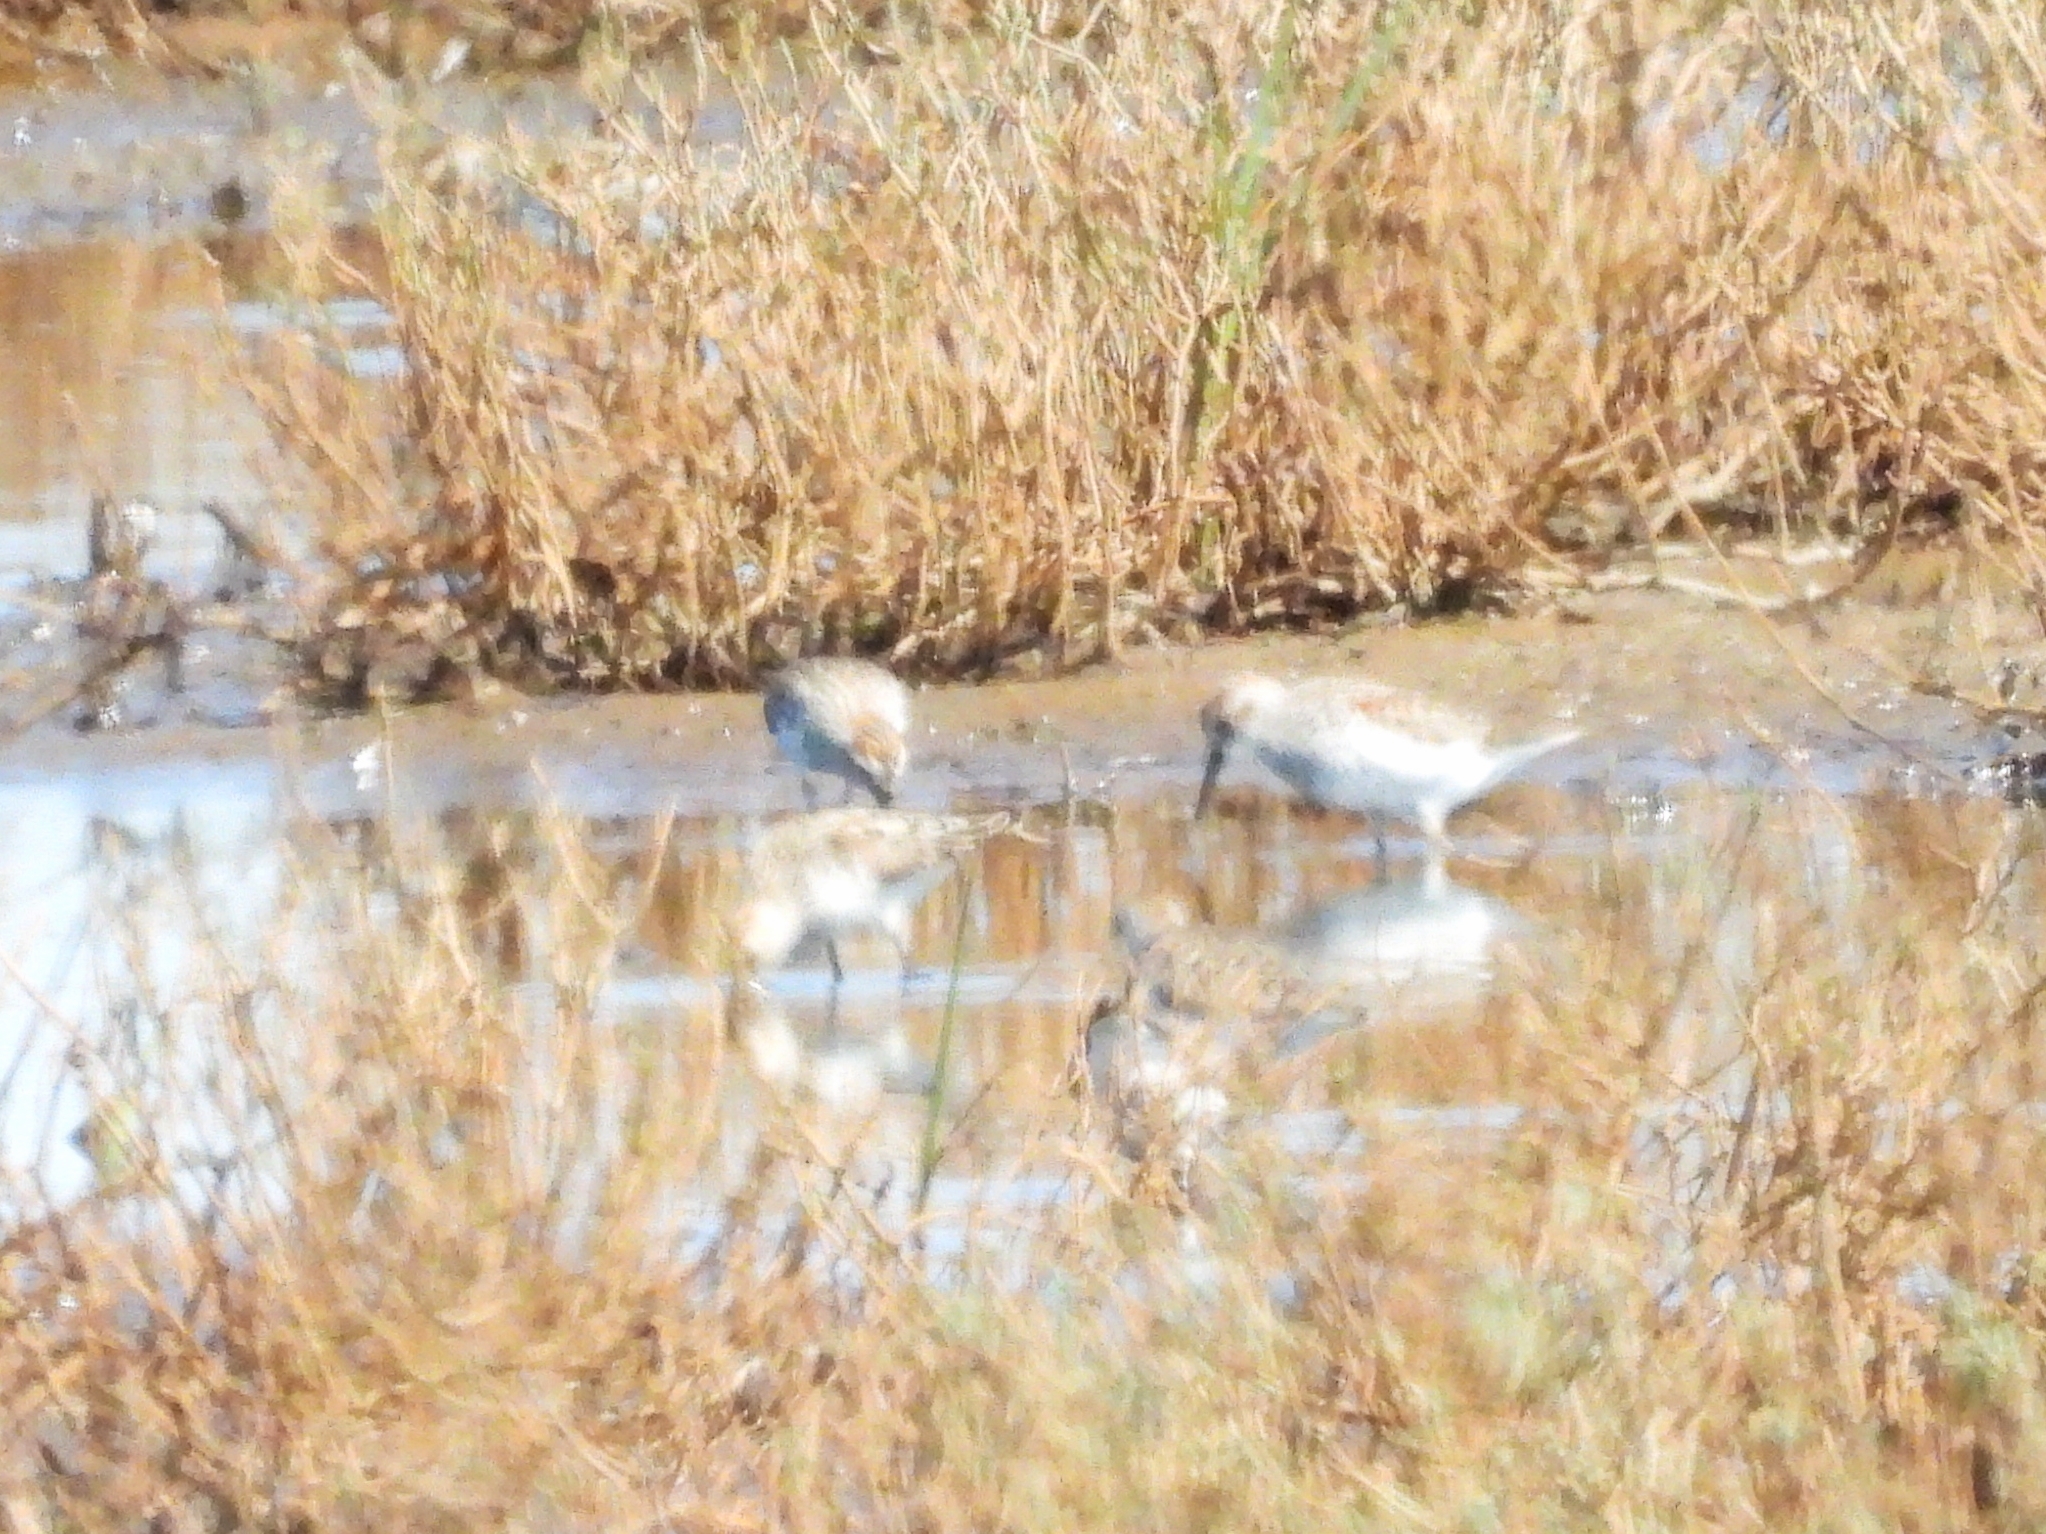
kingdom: Animalia
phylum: Chordata
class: Aves
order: Charadriiformes
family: Scolopacidae
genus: Calidris
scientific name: Calidris mauri
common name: Western sandpiper
